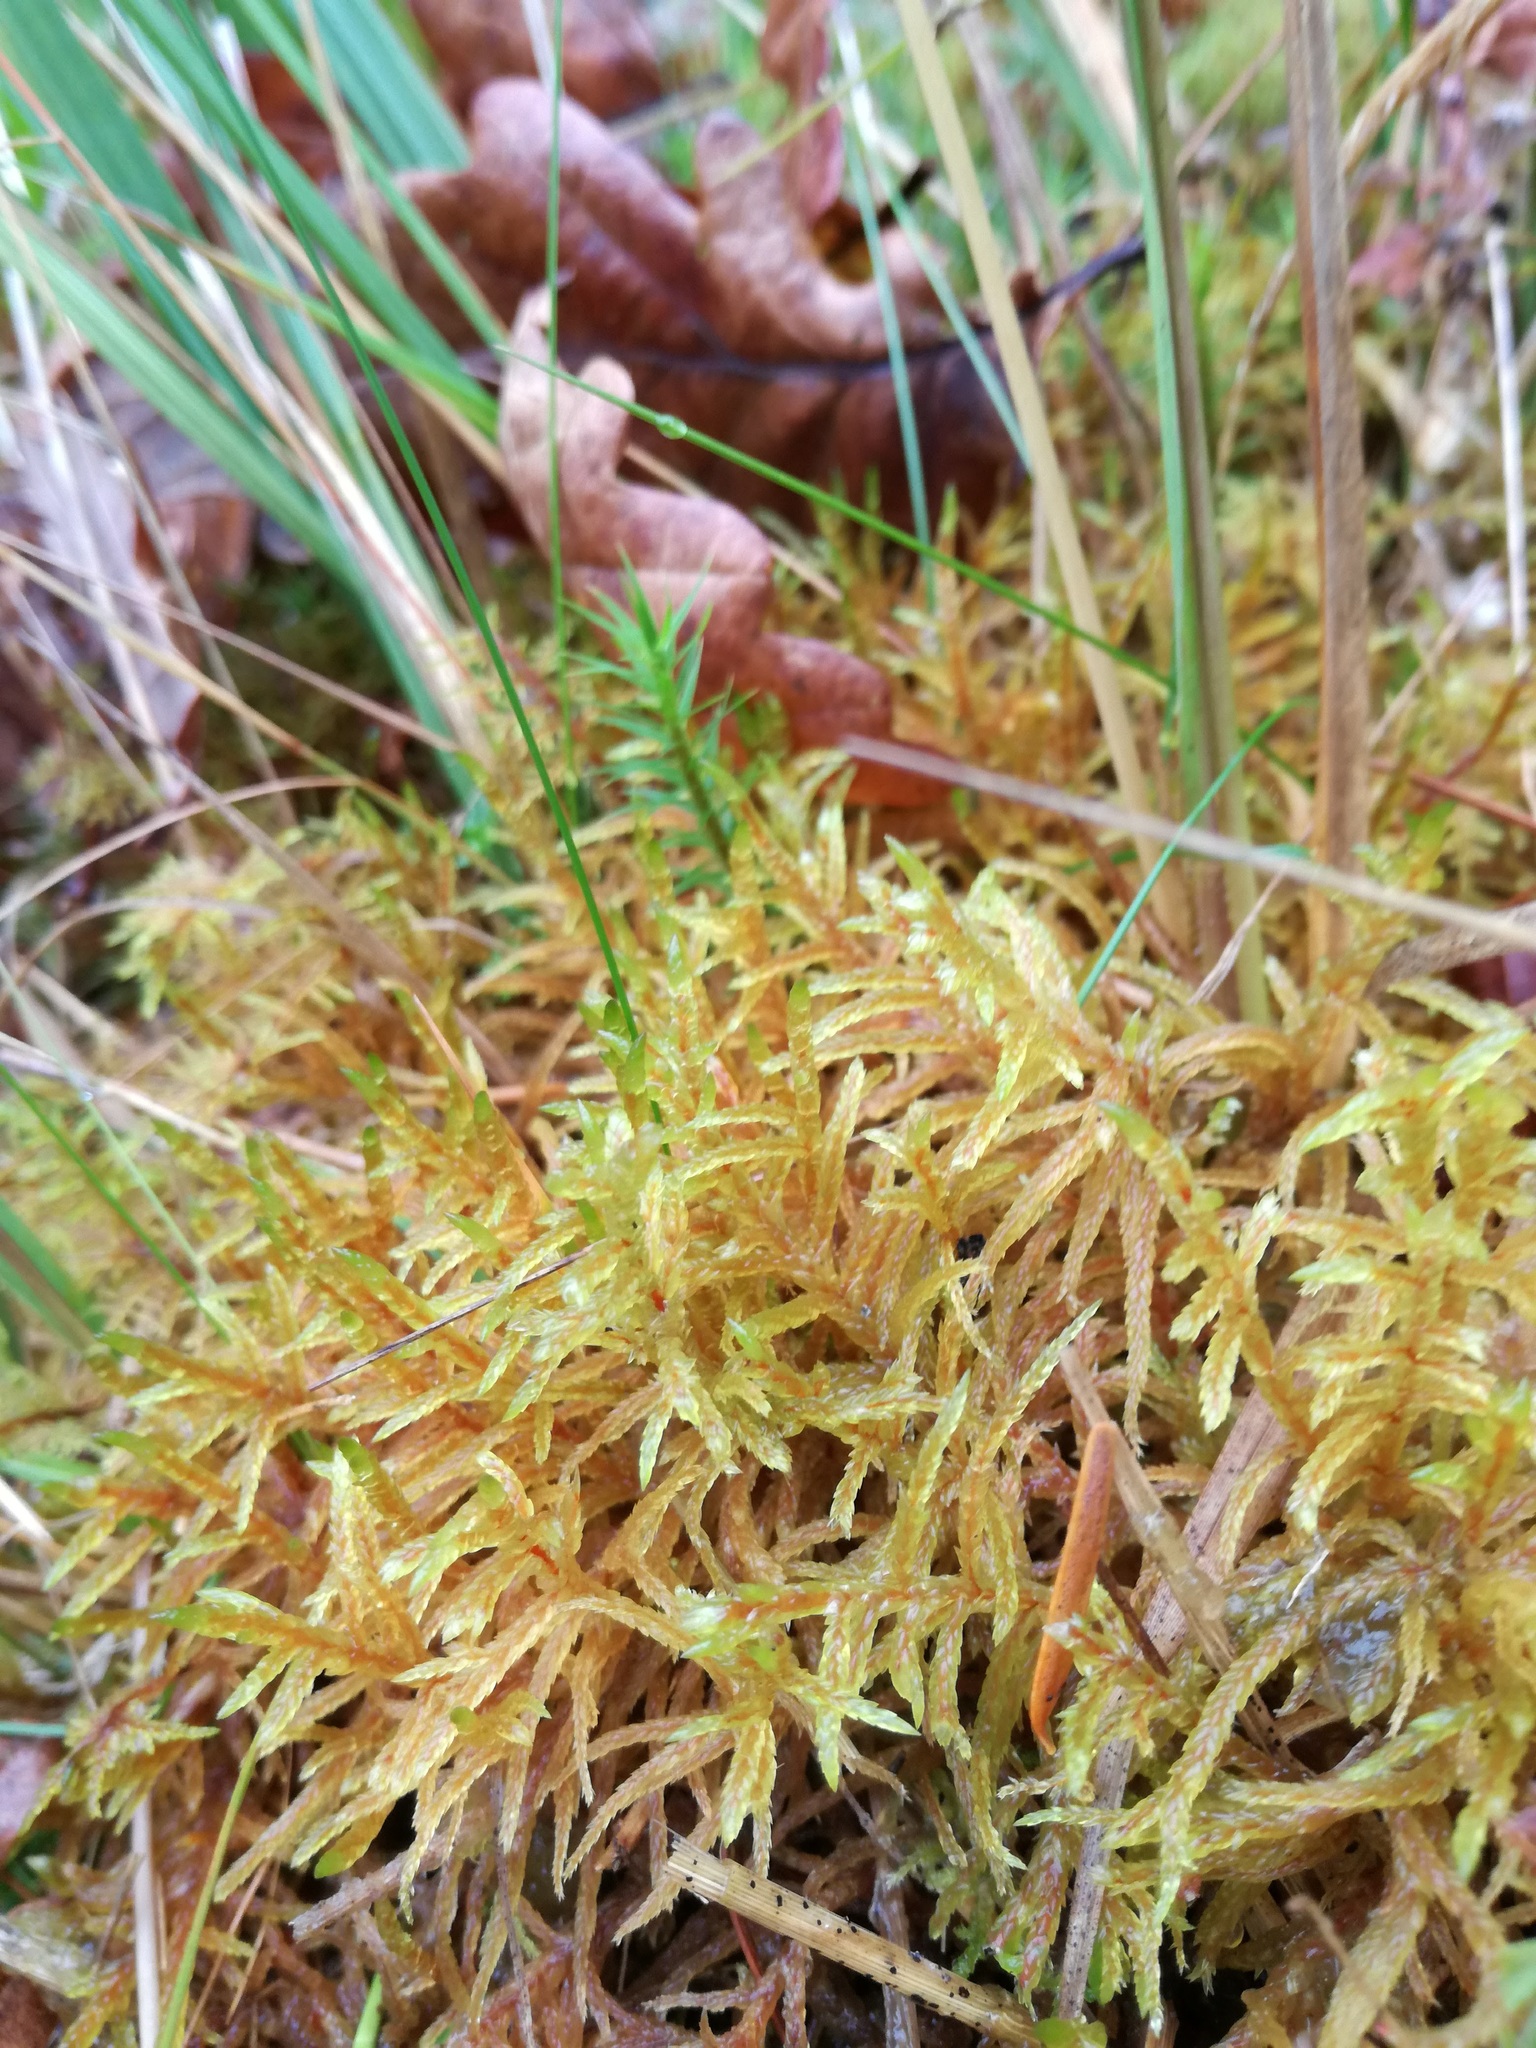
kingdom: Plantae
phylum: Bryophyta
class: Bryopsida
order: Hypnales
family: Hylocomiaceae
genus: Pleurozium
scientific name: Pleurozium schreberi
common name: Red-stemmed feather moss
